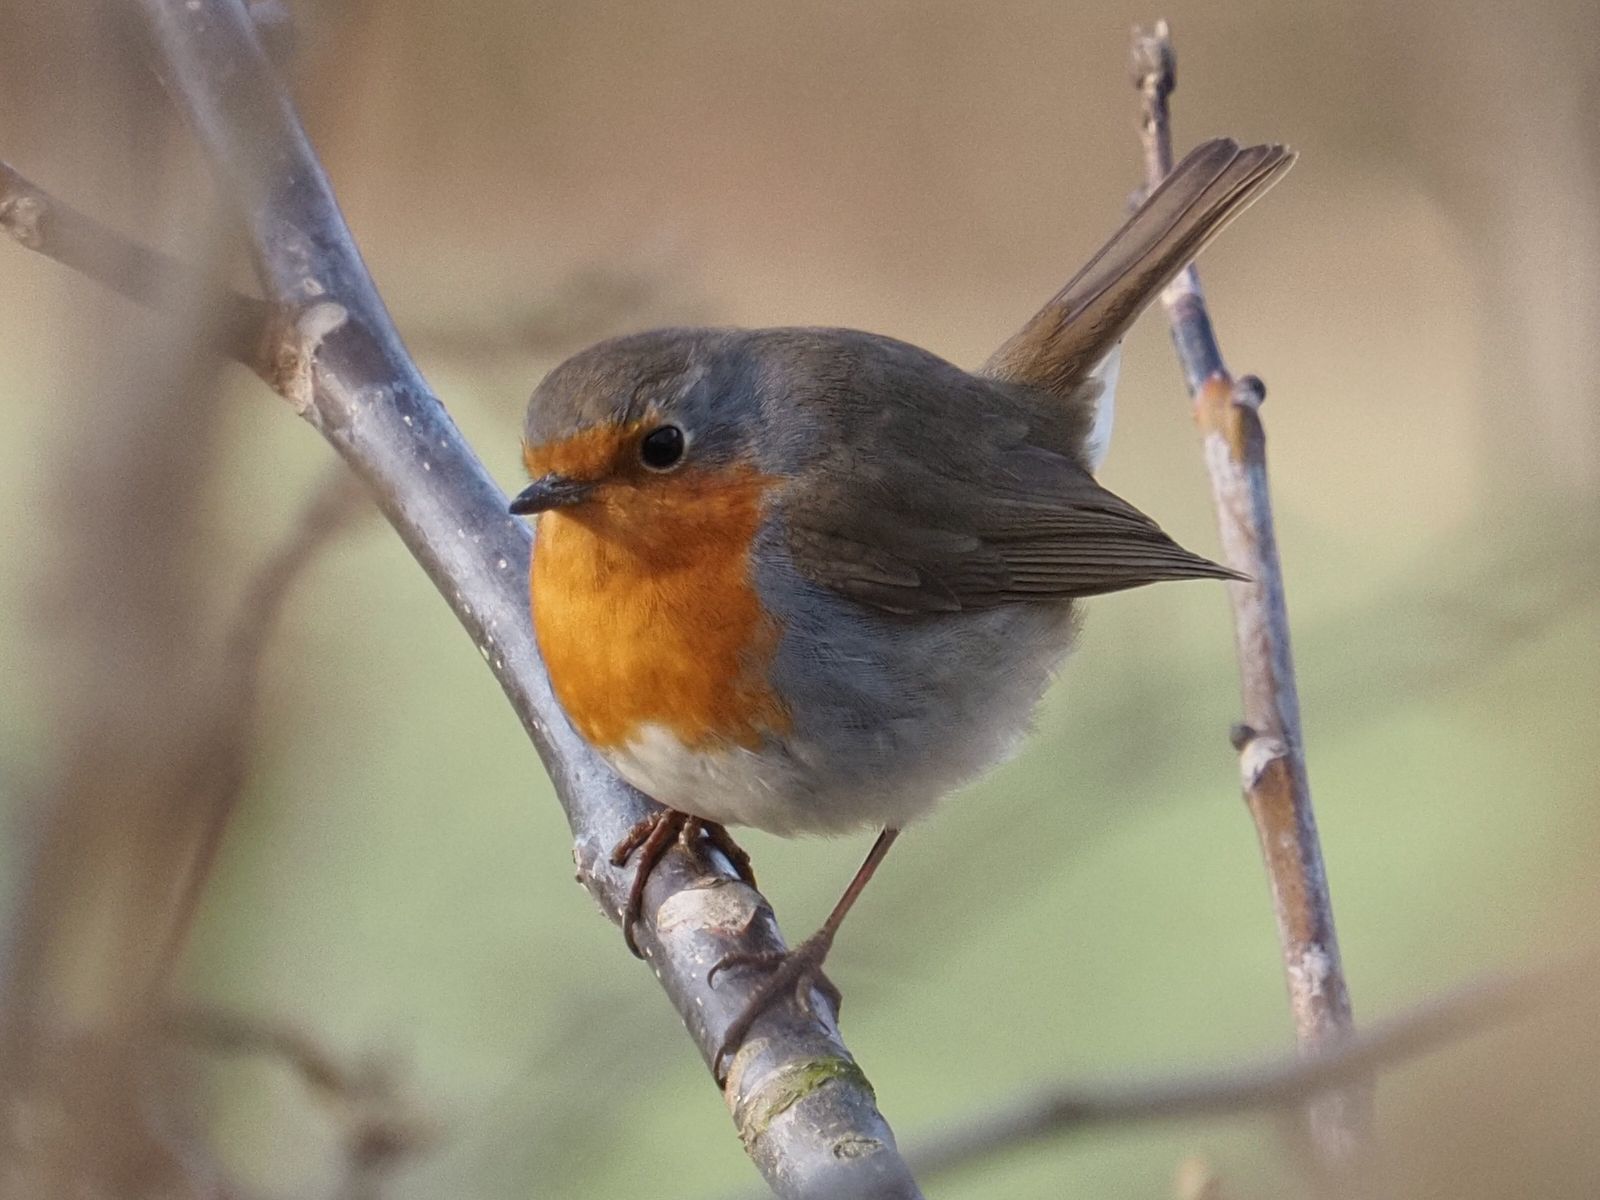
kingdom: Animalia
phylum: Chordata
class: Aves
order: Passeriformes
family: Muscicapidae
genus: Erithacus
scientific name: Erithacus rubecula
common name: European robin
